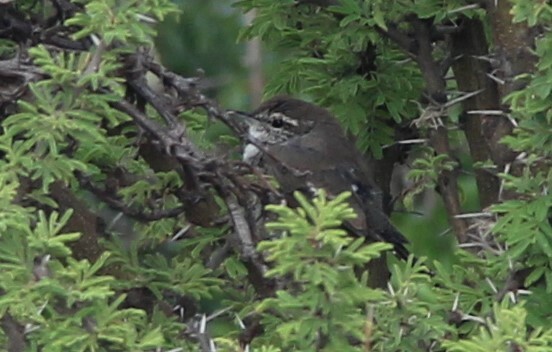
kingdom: Animalia
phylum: Chordata
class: Aves
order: Passeriformes
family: Troglodytidae
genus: Thryomanes
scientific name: Thryomanes bewickii
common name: Bewick's wren
